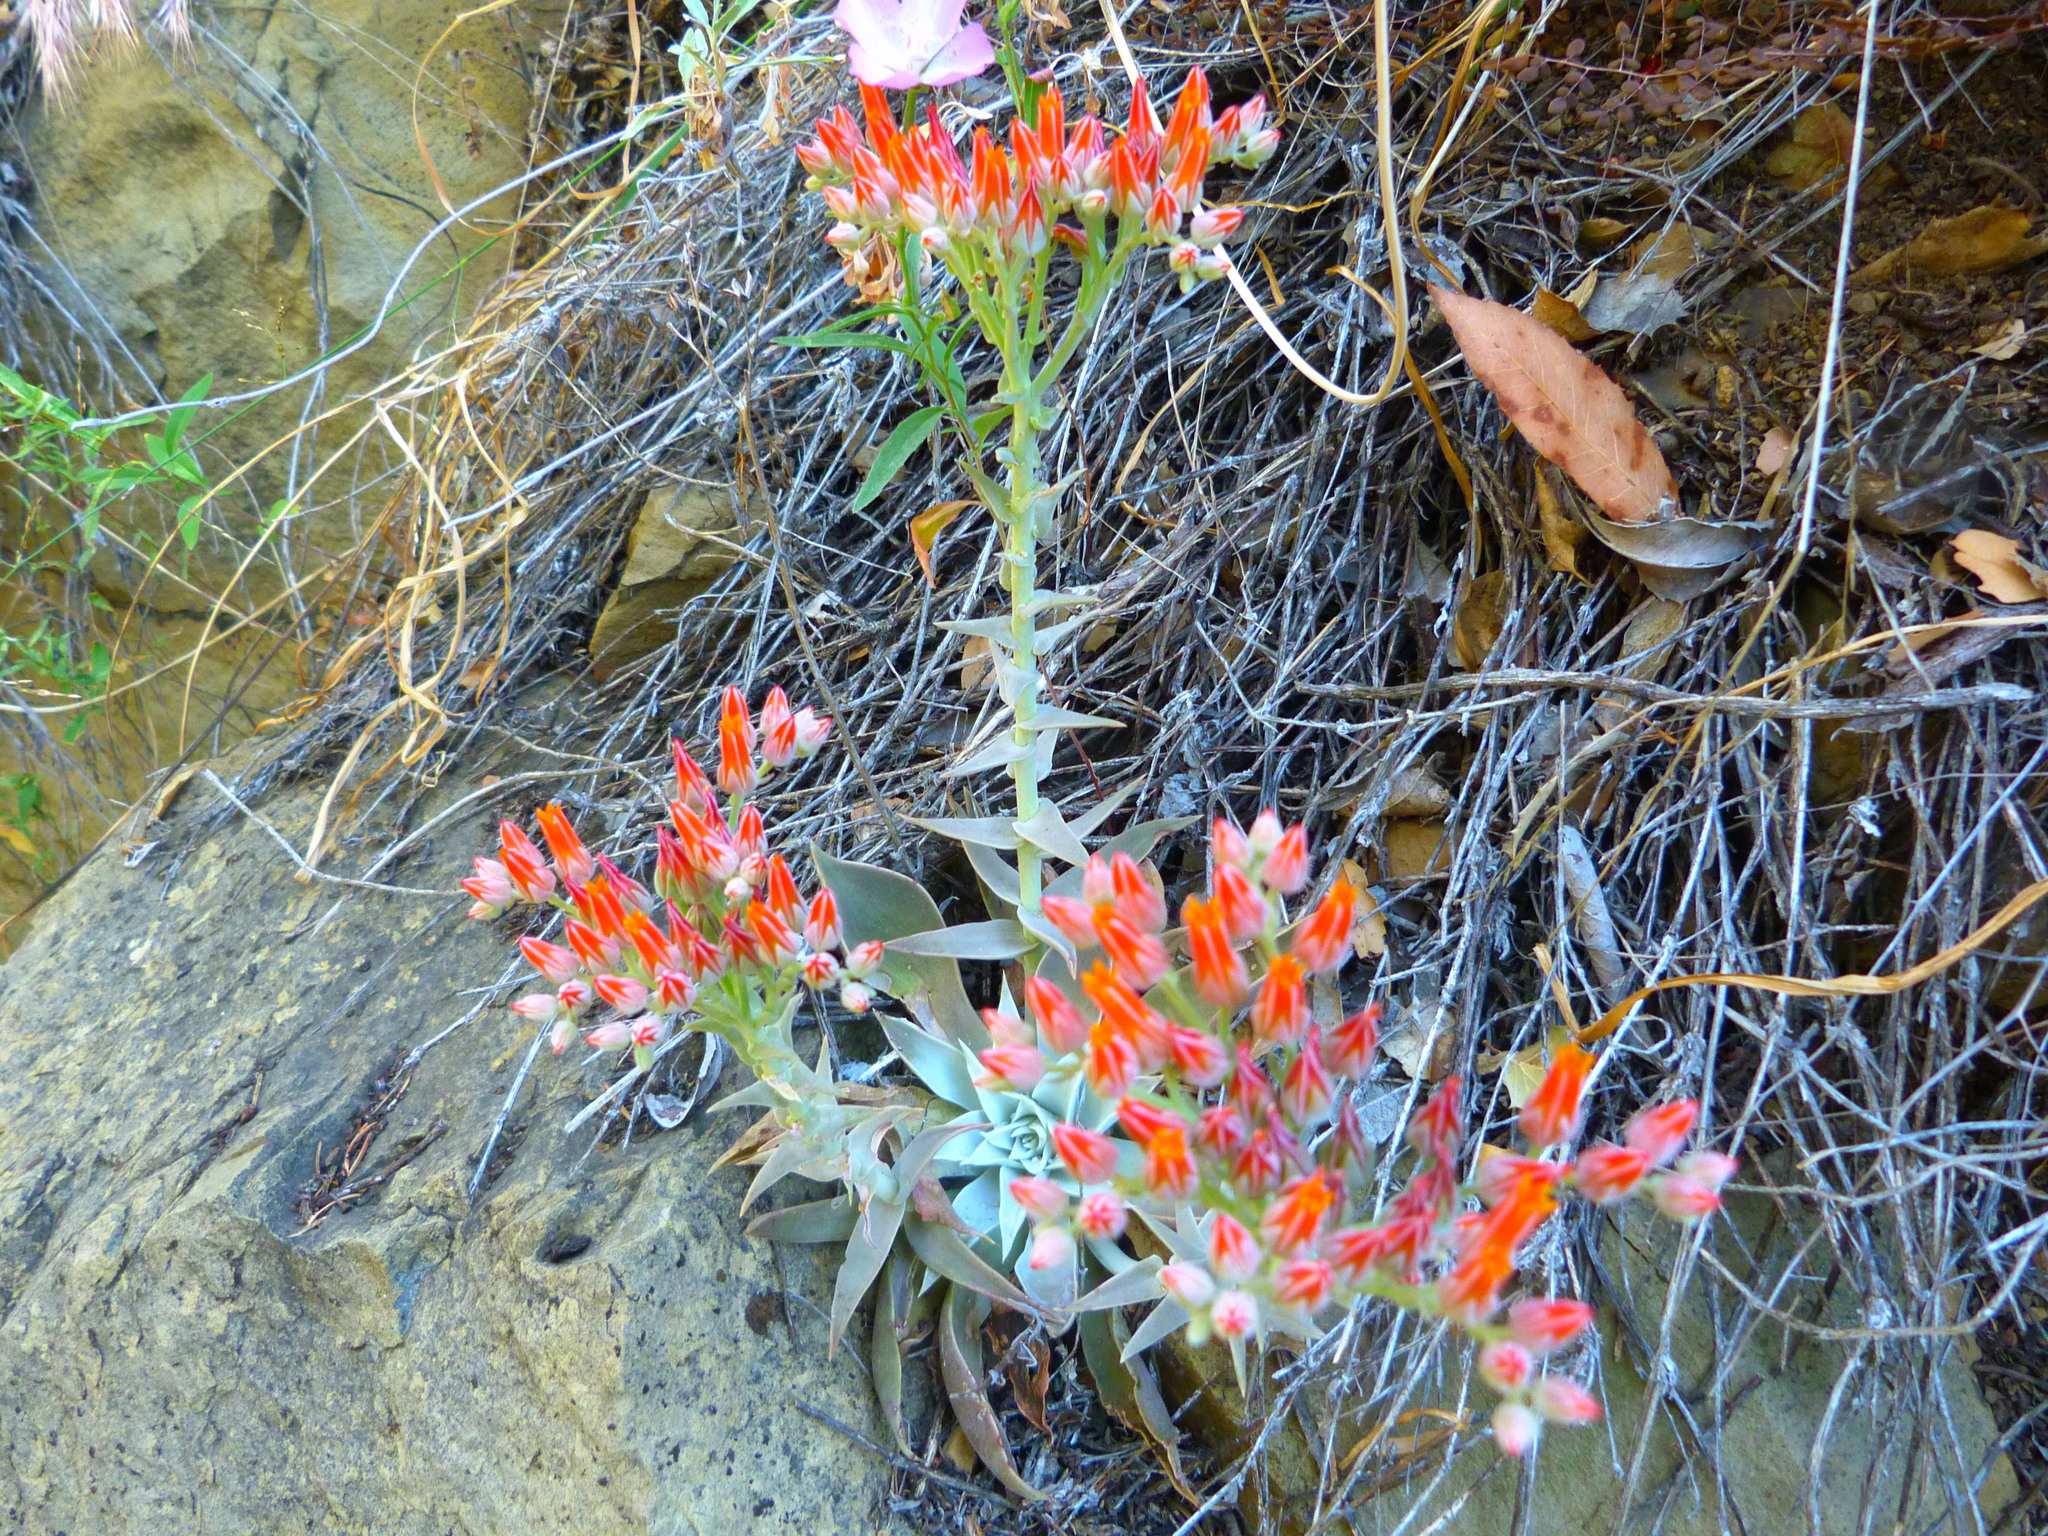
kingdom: Plantae
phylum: Tracheophyta
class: Magnoliopsida
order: Saxifragales
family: Crassulaceae
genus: Dudleya
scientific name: Dudleya cymosa
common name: Canyon dudleya
